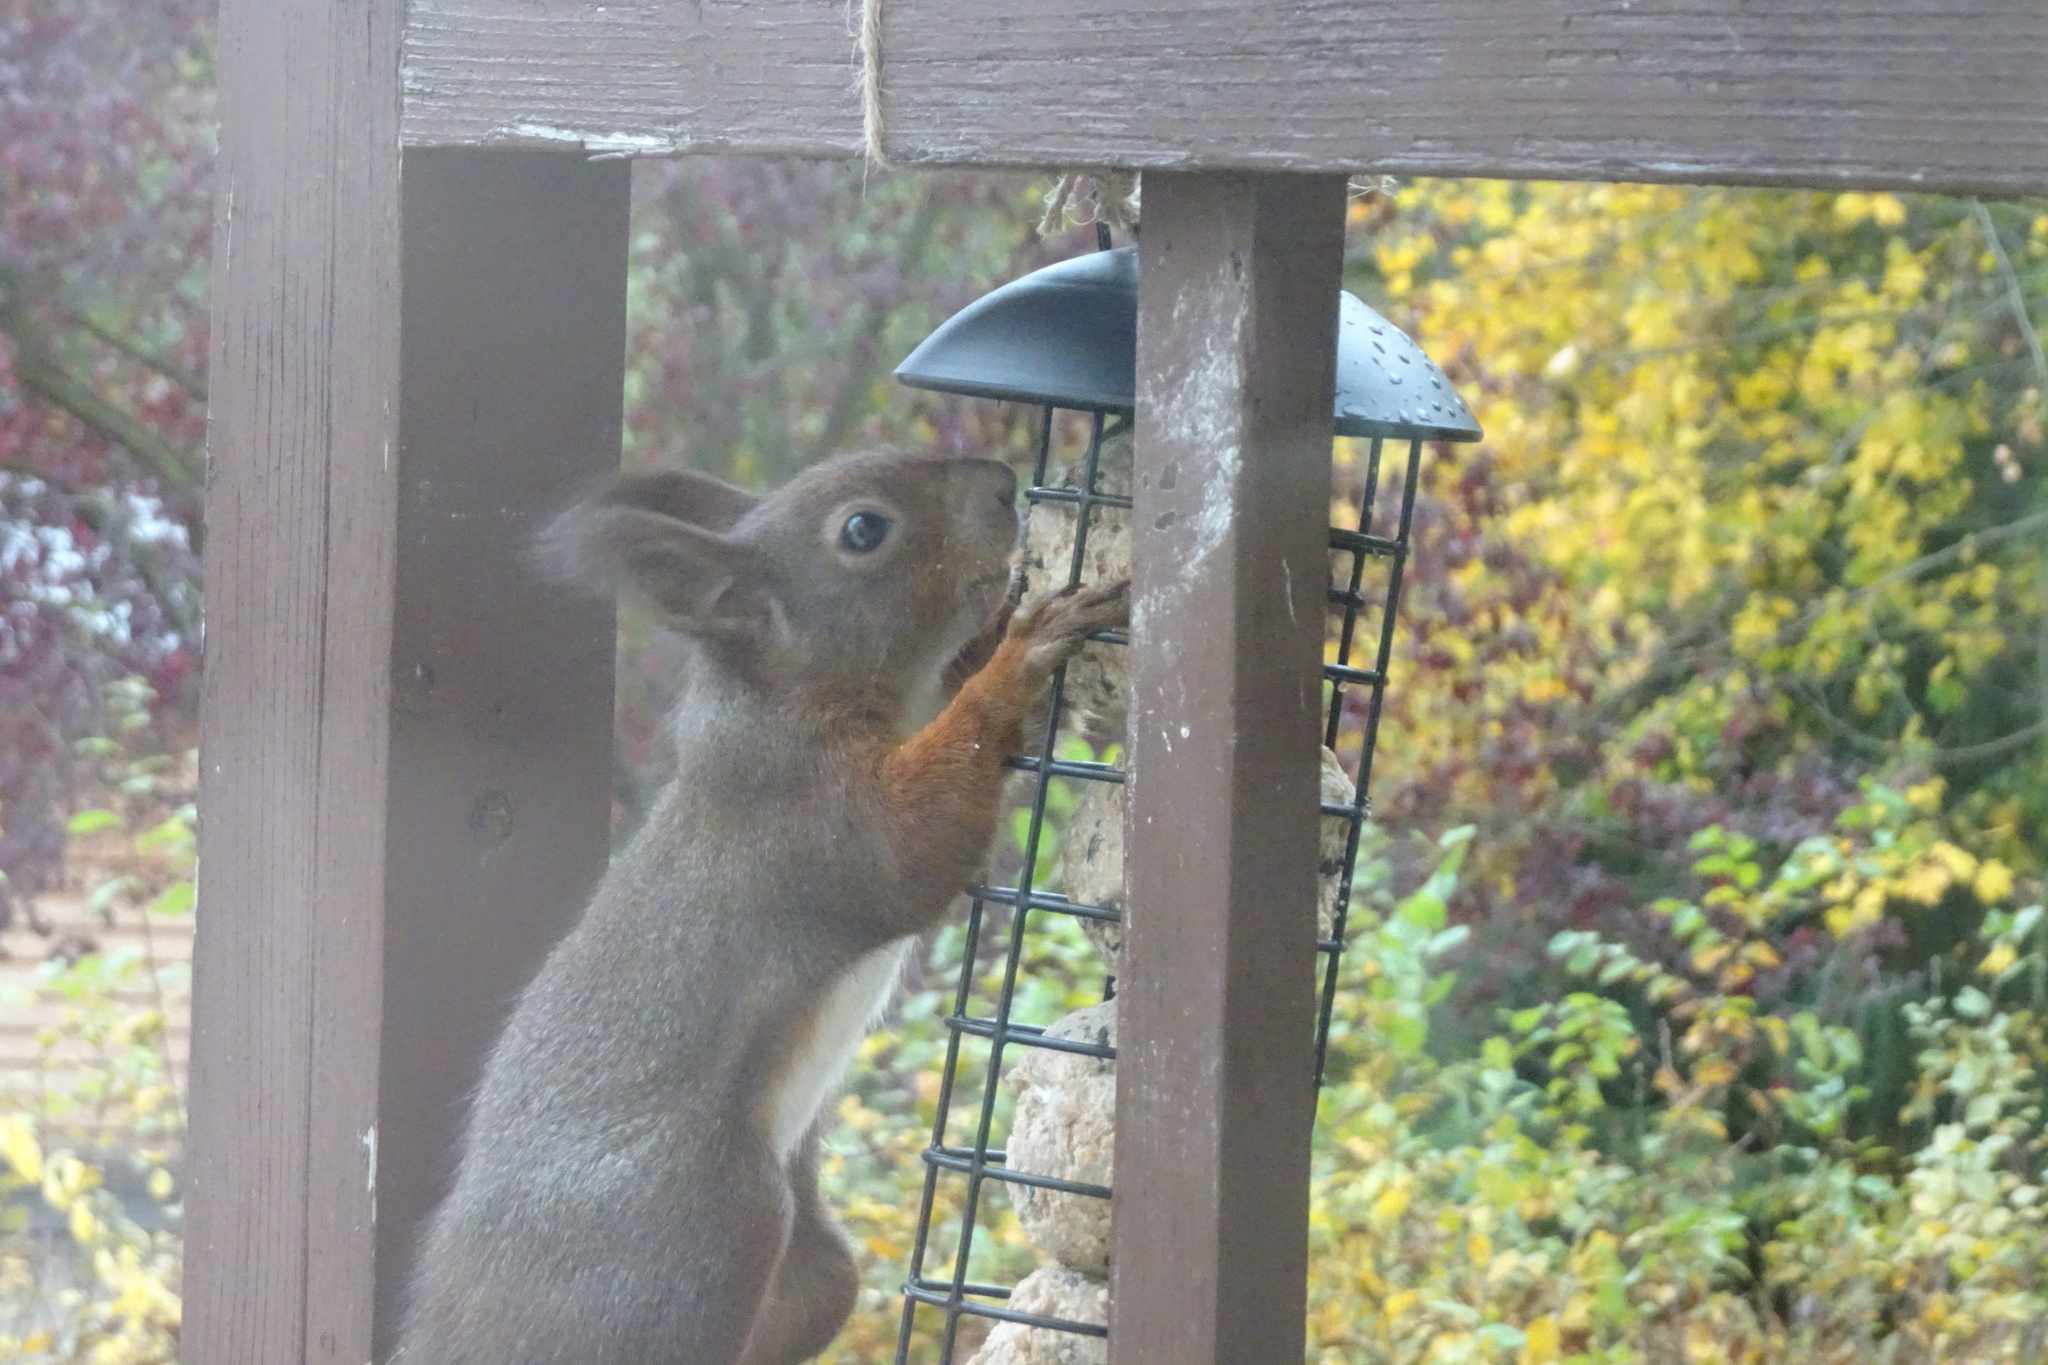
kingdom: Animalia
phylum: Chordata
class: Mammalia
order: Rodentia
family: Sciuridae
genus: Sciurus
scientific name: Sciurus vulgaris
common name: Eurasian red squirrel
